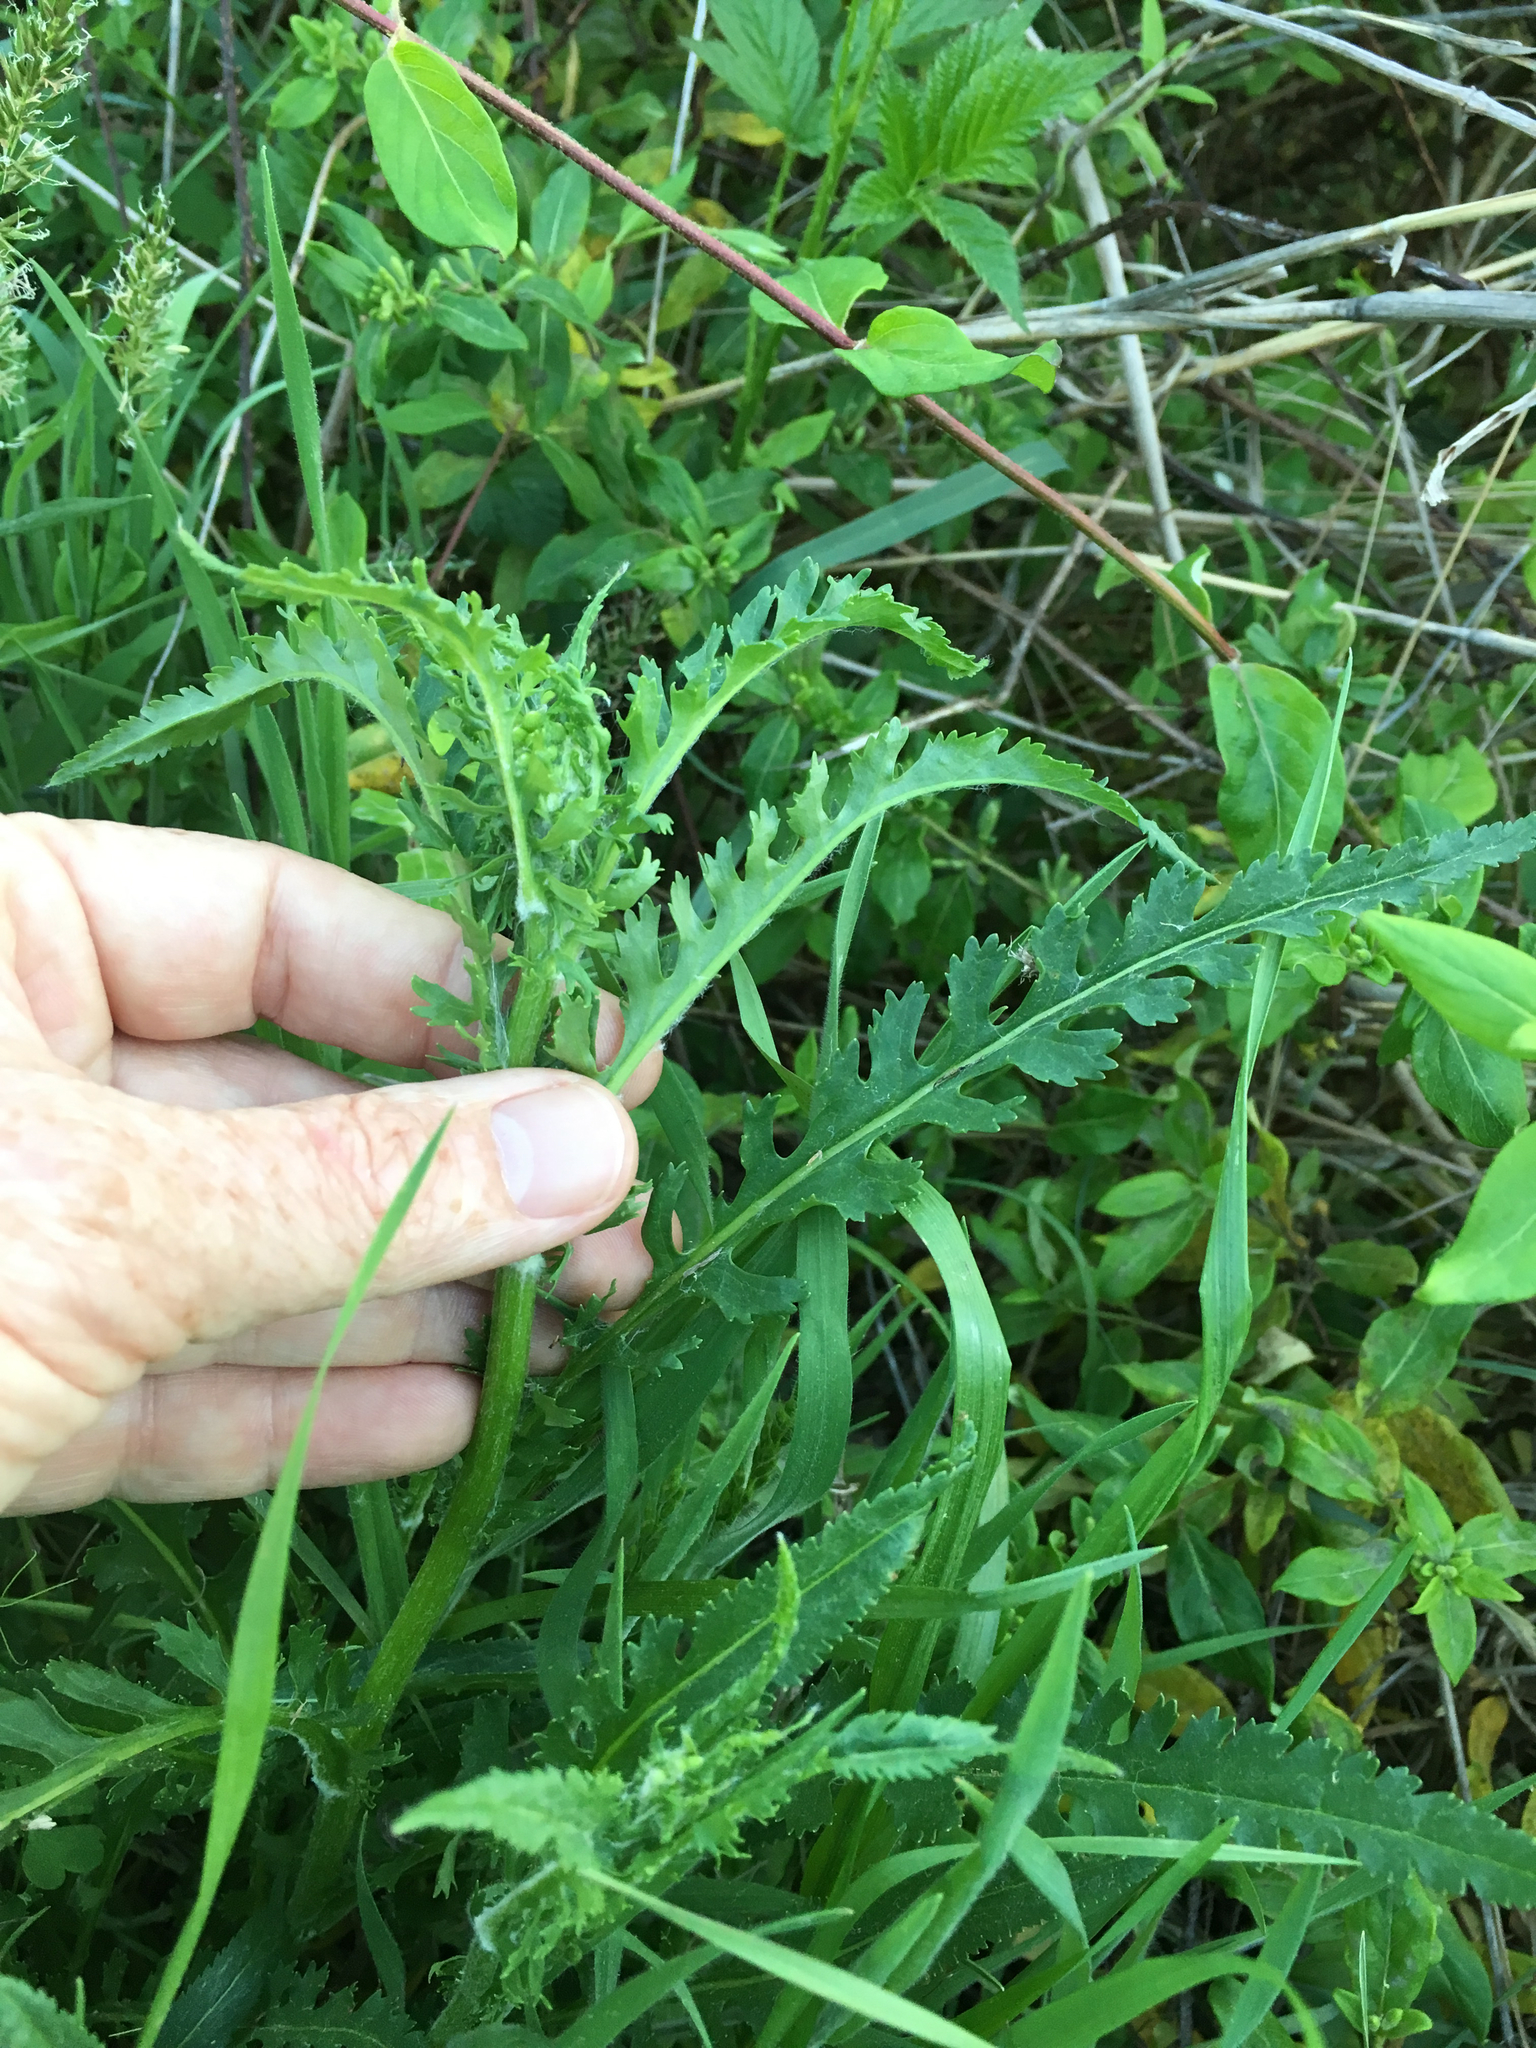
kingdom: Plantae
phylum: Tracheophyta
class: Magnoliopsida
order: Asterales
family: Asteraceae
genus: Packera
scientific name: Packera anonyma
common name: Small ragwort
